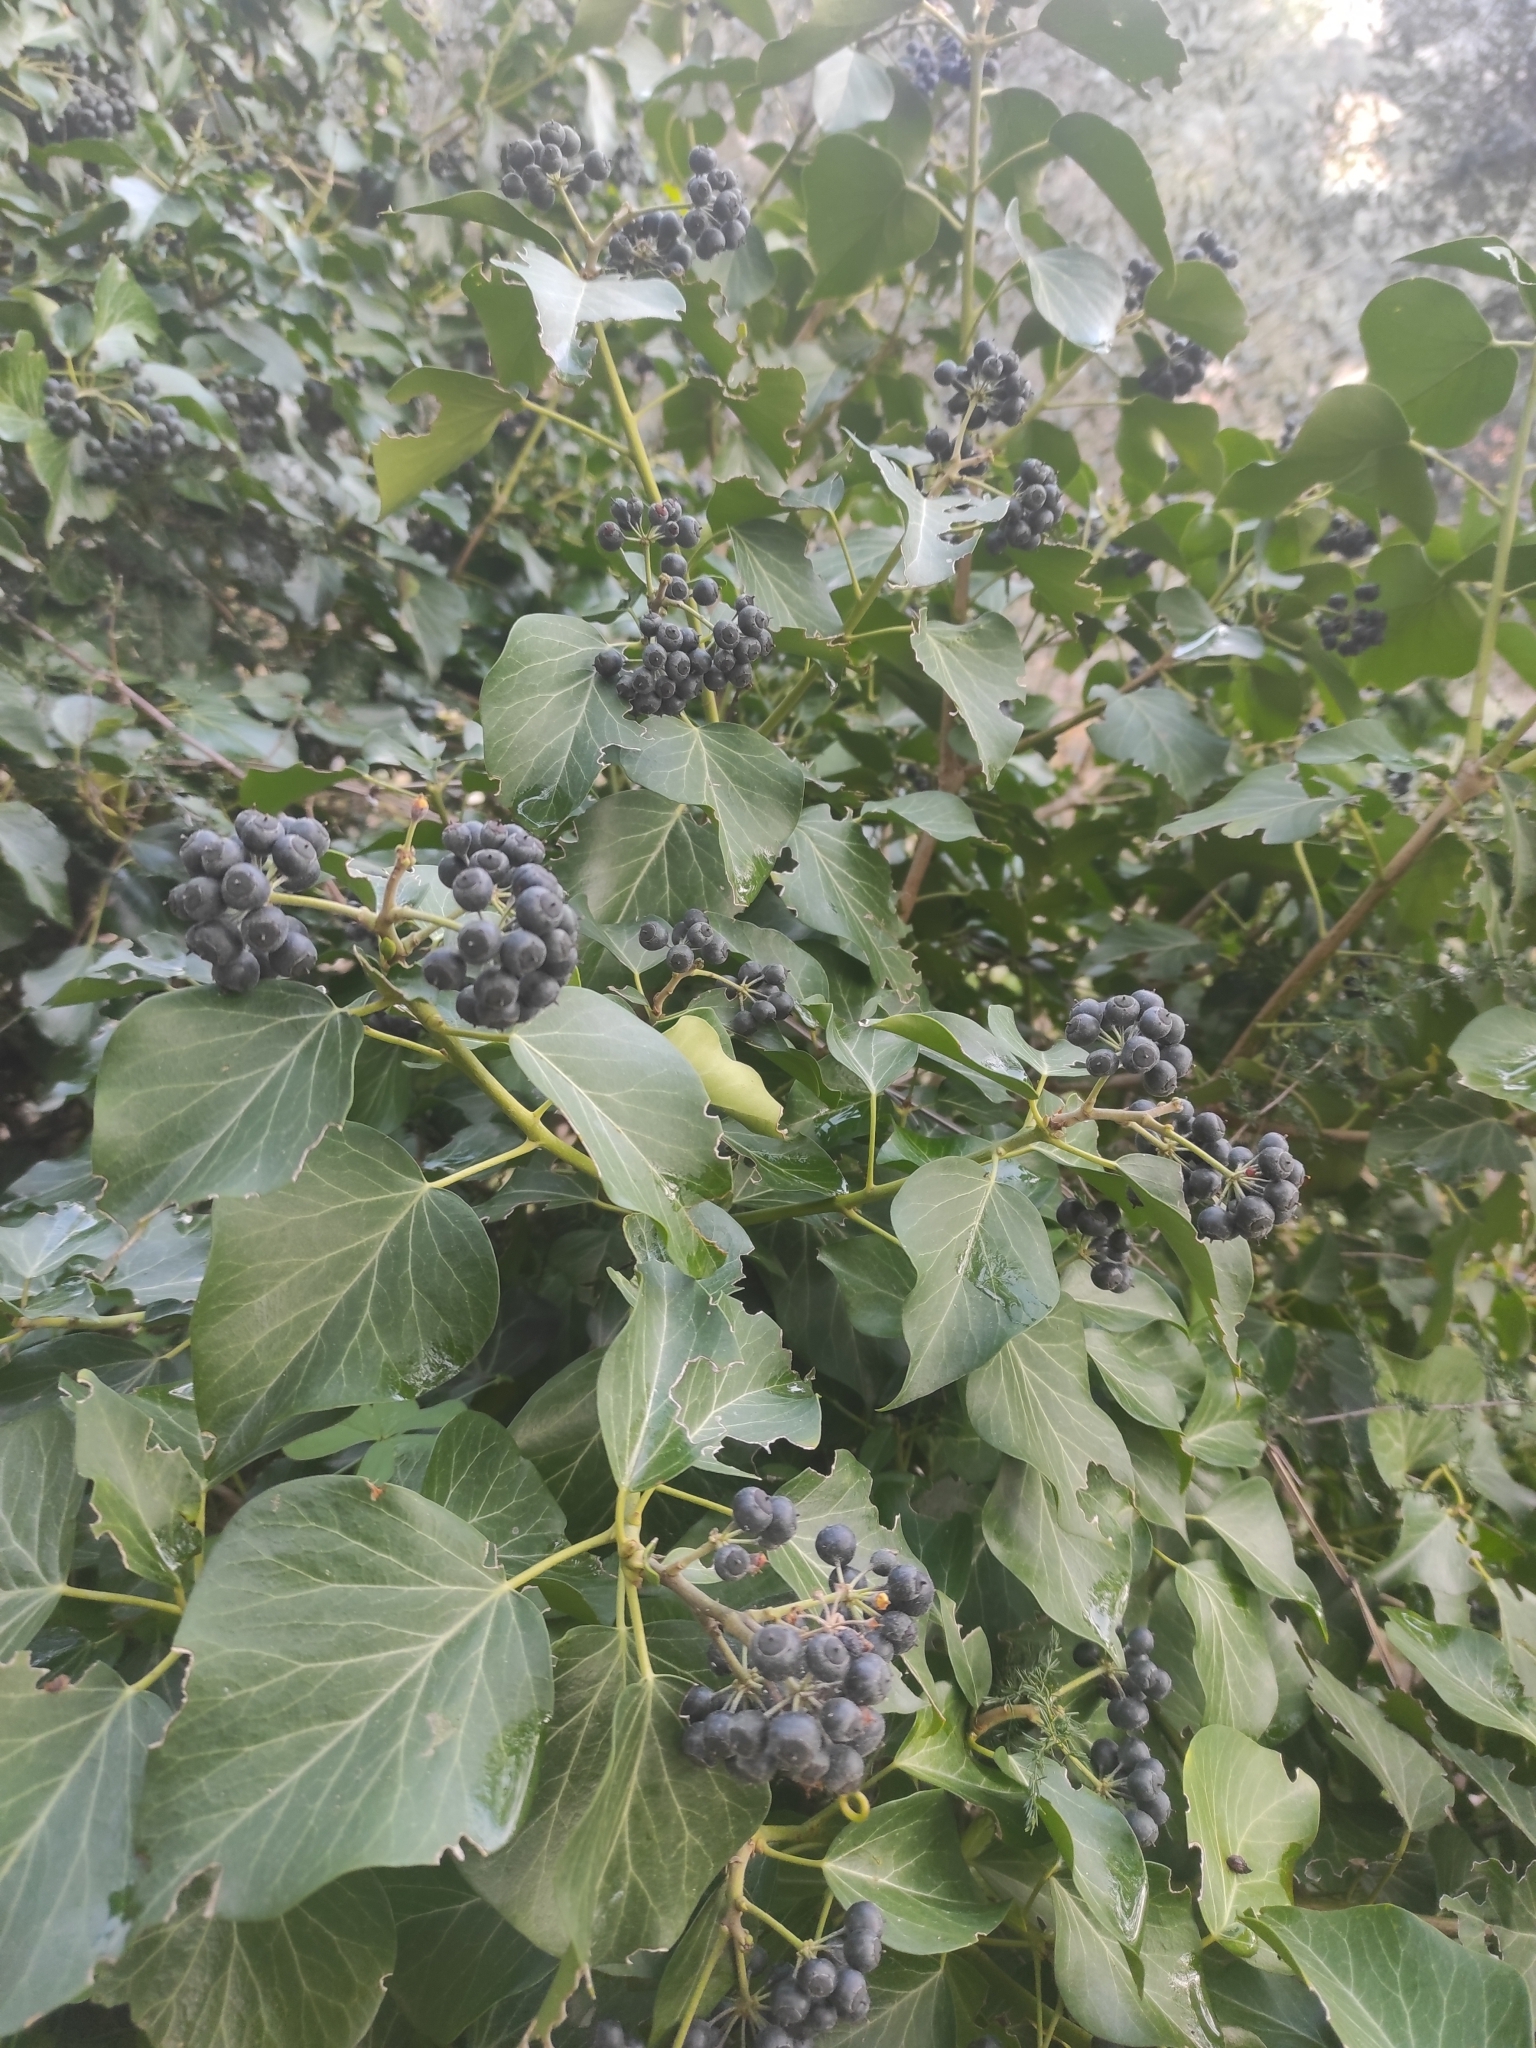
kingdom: Plantae
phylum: Tracheophyta
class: Magnoliopsida
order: Apiales
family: Araliaceae
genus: Hedera
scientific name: Hedera helix
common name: Ivy
